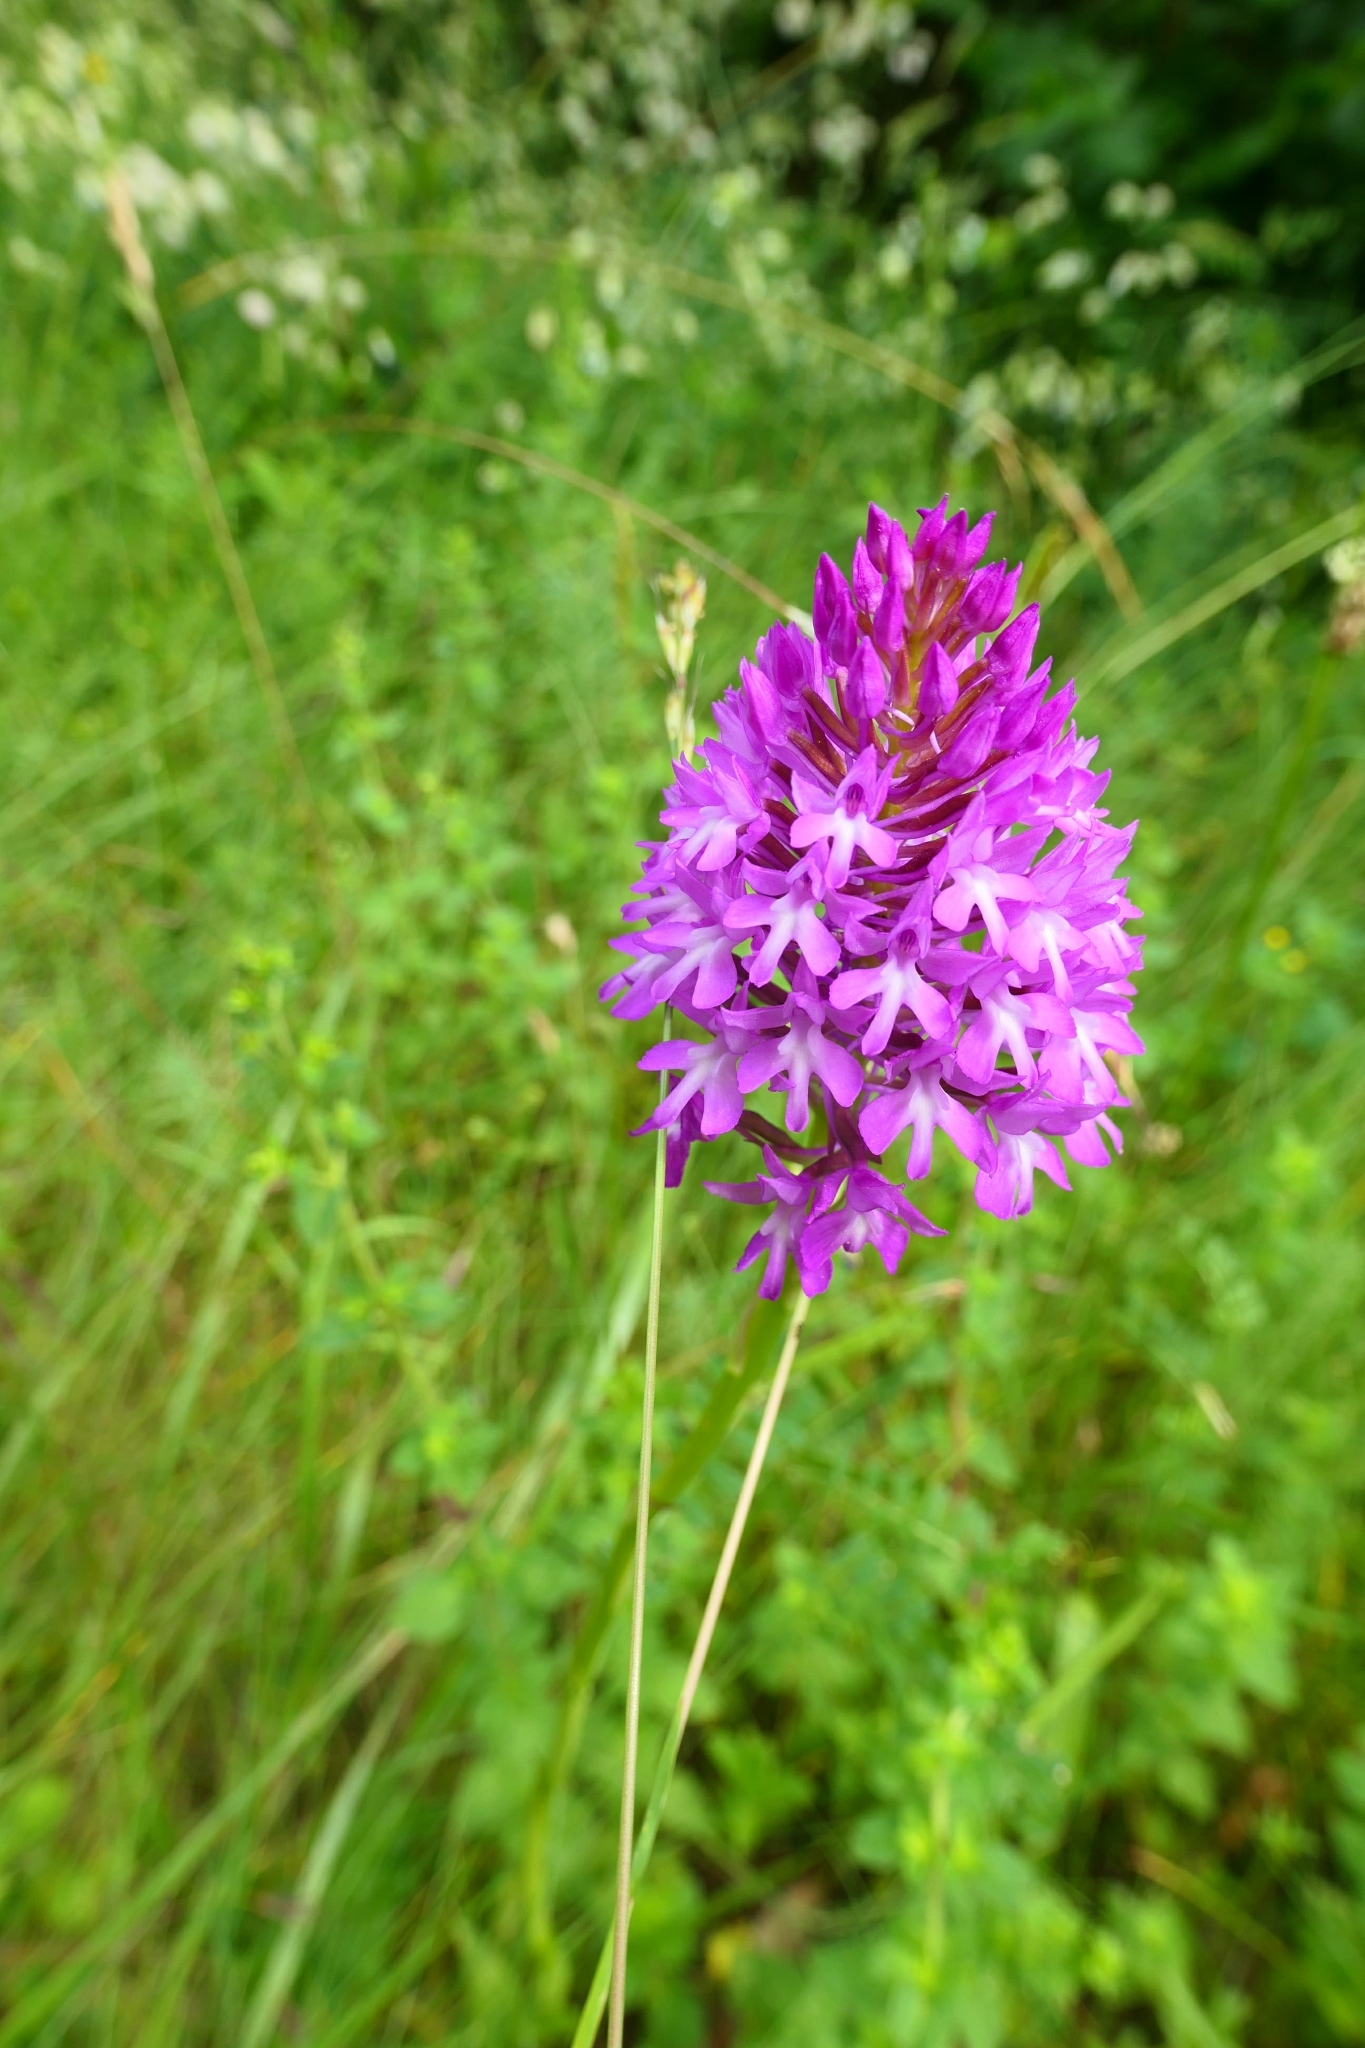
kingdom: Plantae
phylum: Tracheophyta
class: Liliopsida
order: Asparagales
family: Orchidaceae
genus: Anacamptis
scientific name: Anacamptis pyramidalis
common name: Pyramidal orchid
